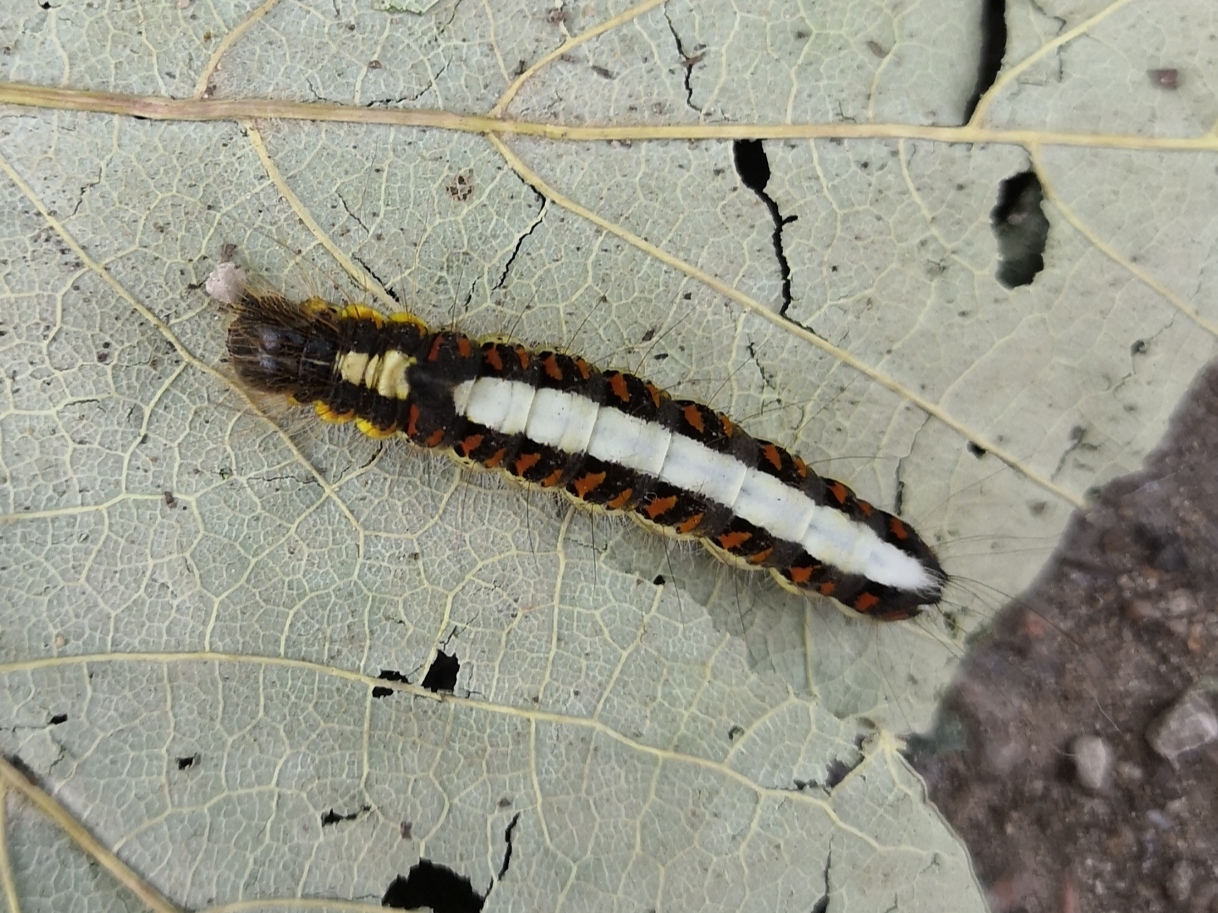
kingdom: Animalia
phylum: Arthropoda
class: Insecta
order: Lepidoptera
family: Noctuidae
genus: Acronicta
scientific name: Acronicta psi
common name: Grey dagger
